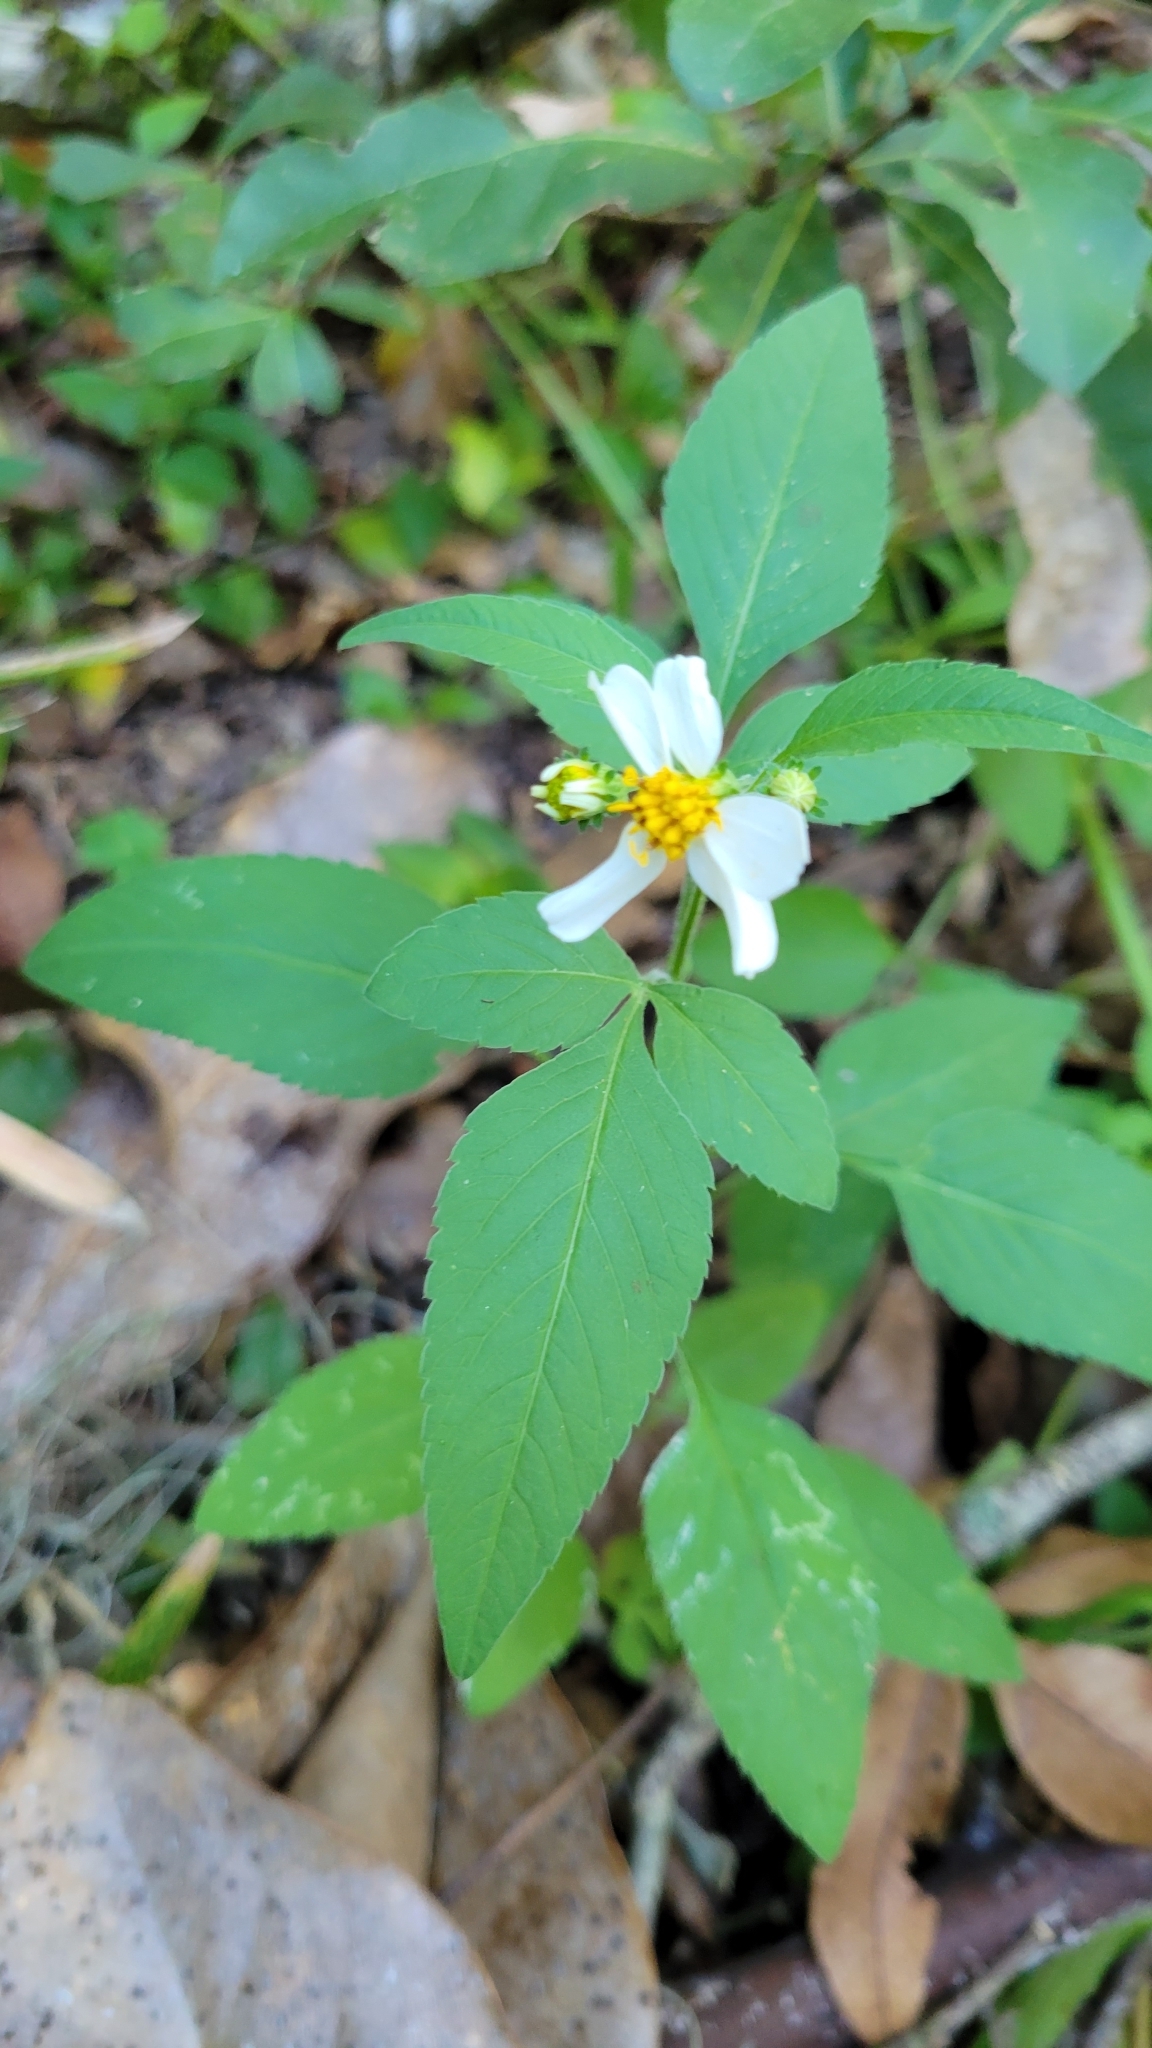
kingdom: Plantae
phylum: Tracheophyta
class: Magnoliopsida
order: Asterales
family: Asteraceae
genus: Bidens
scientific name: Bidens alba
